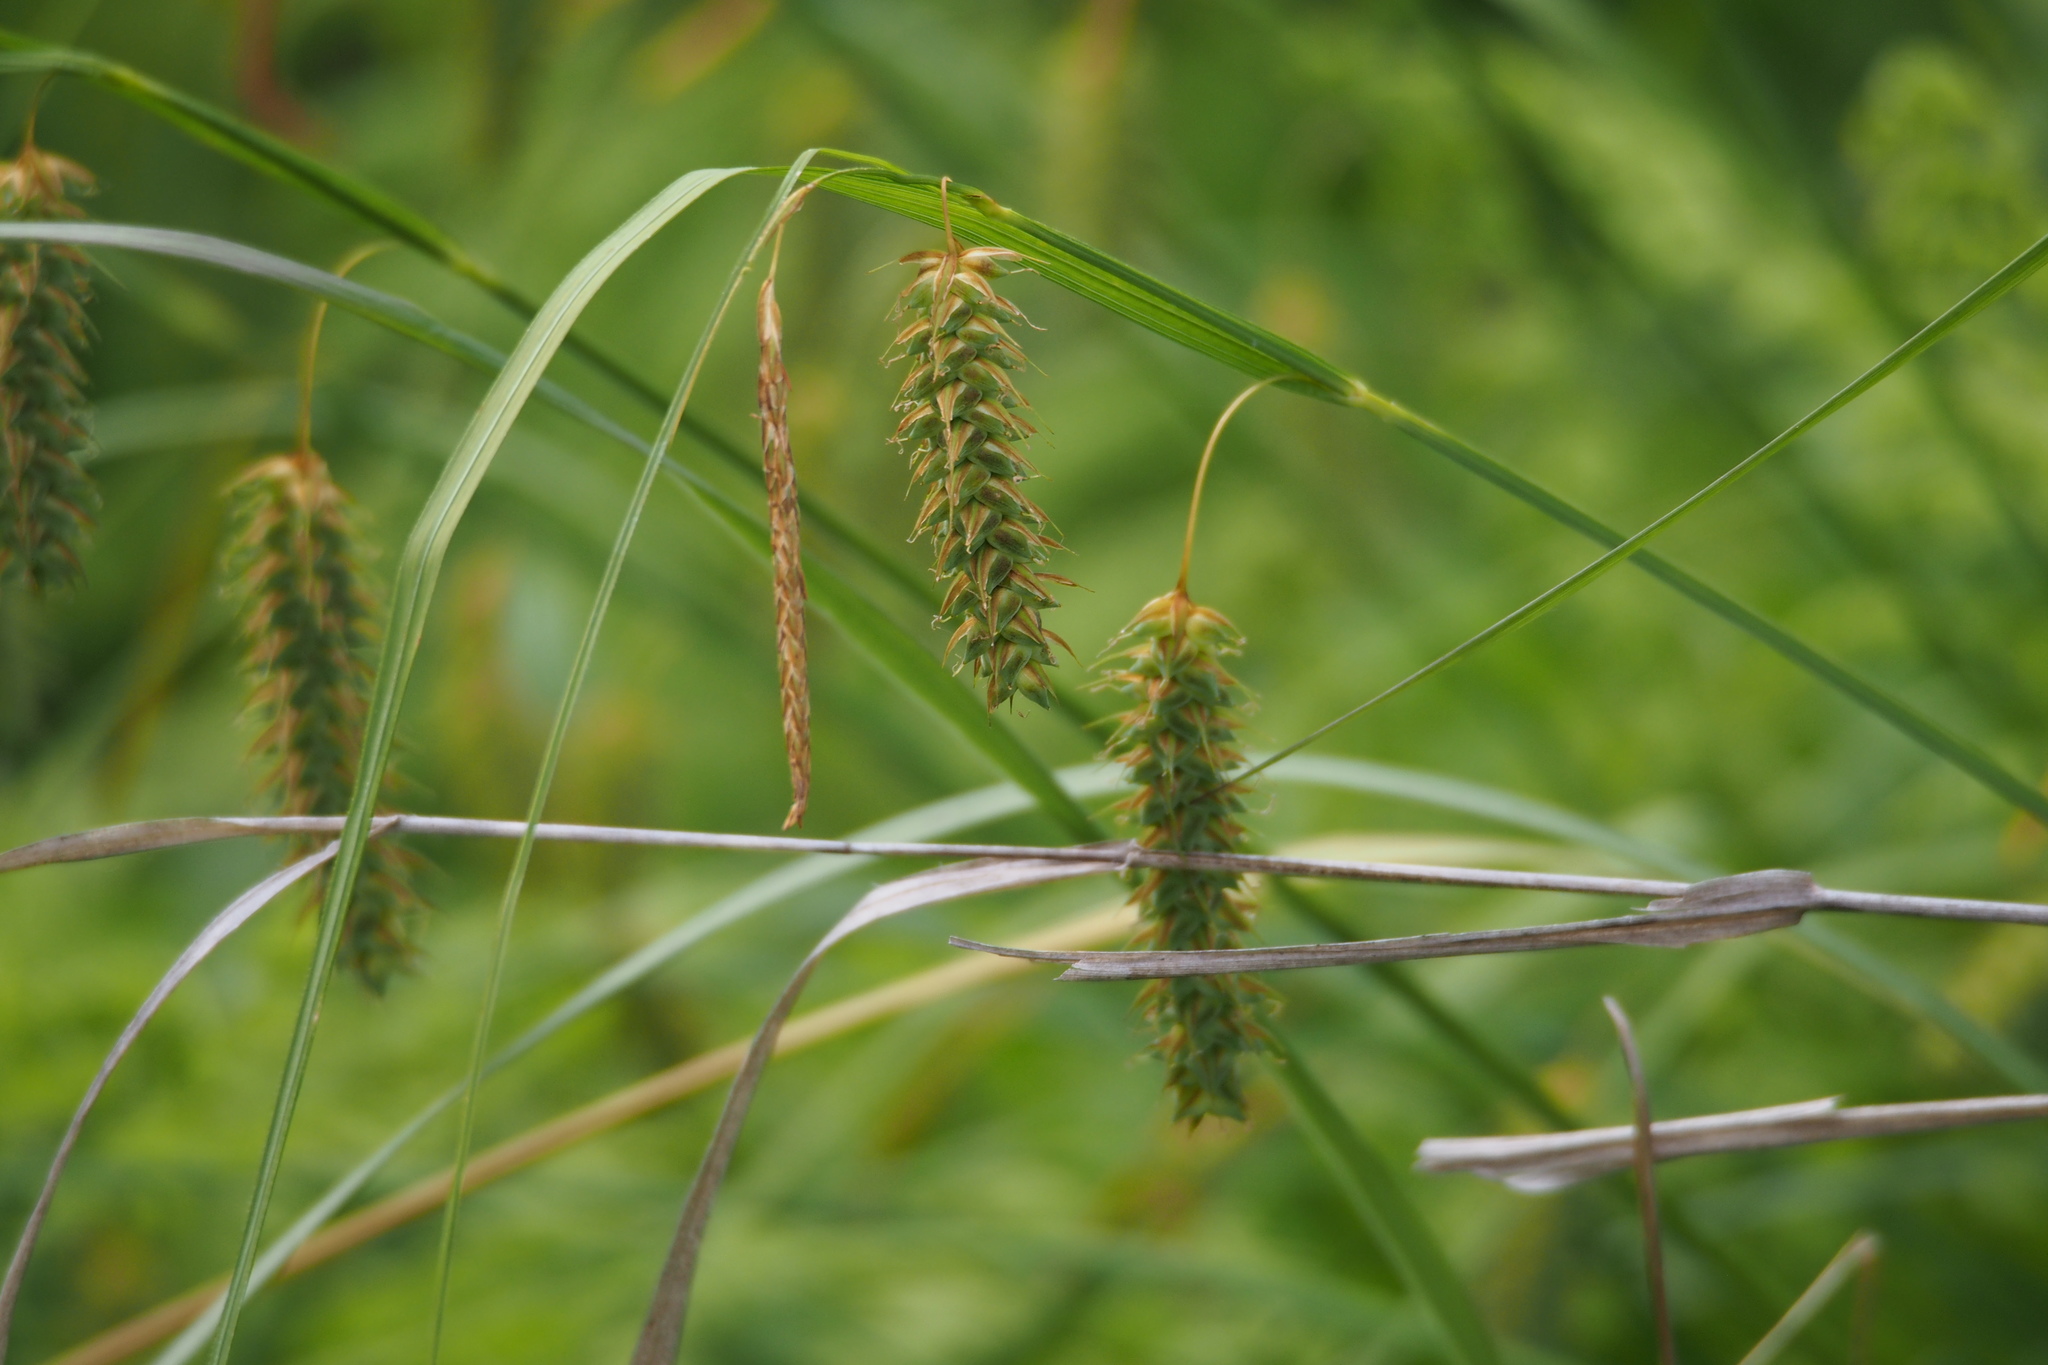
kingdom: Plantae
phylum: Tracheophyta
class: Liliopsida
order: Poales
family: Cyperaceae
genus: Carex
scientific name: Carex maximowiczii
